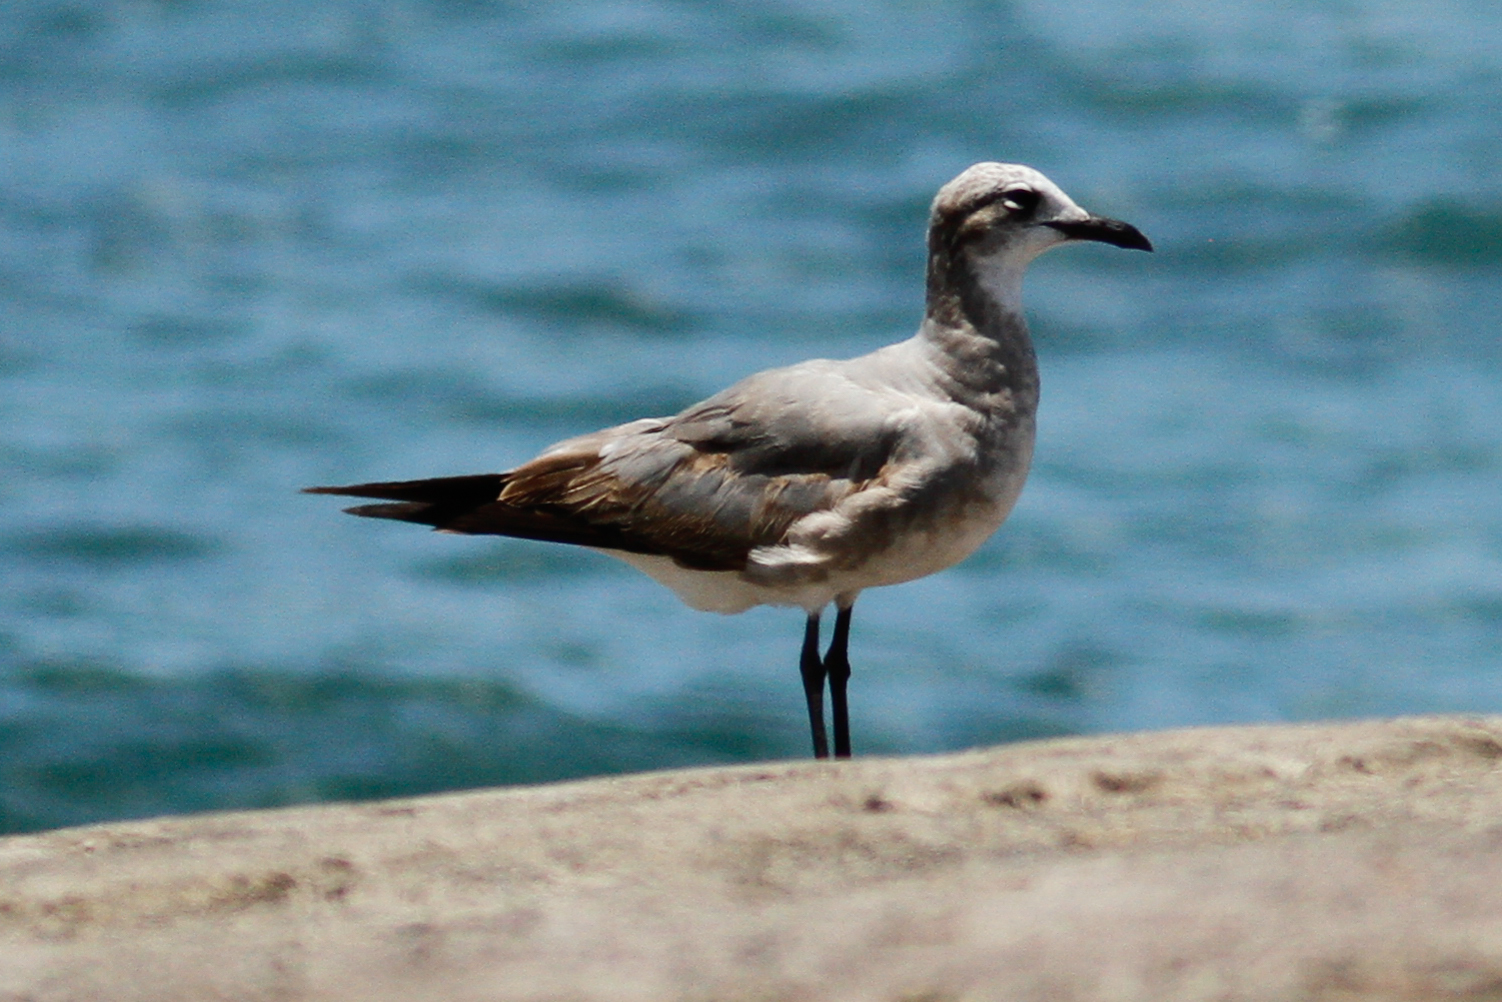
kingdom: Animalia
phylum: Chordata
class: Aves
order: Charadriiformes
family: Laridae
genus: Leucophaeus
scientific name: Leucophaeus atricilla
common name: Laughing gull
